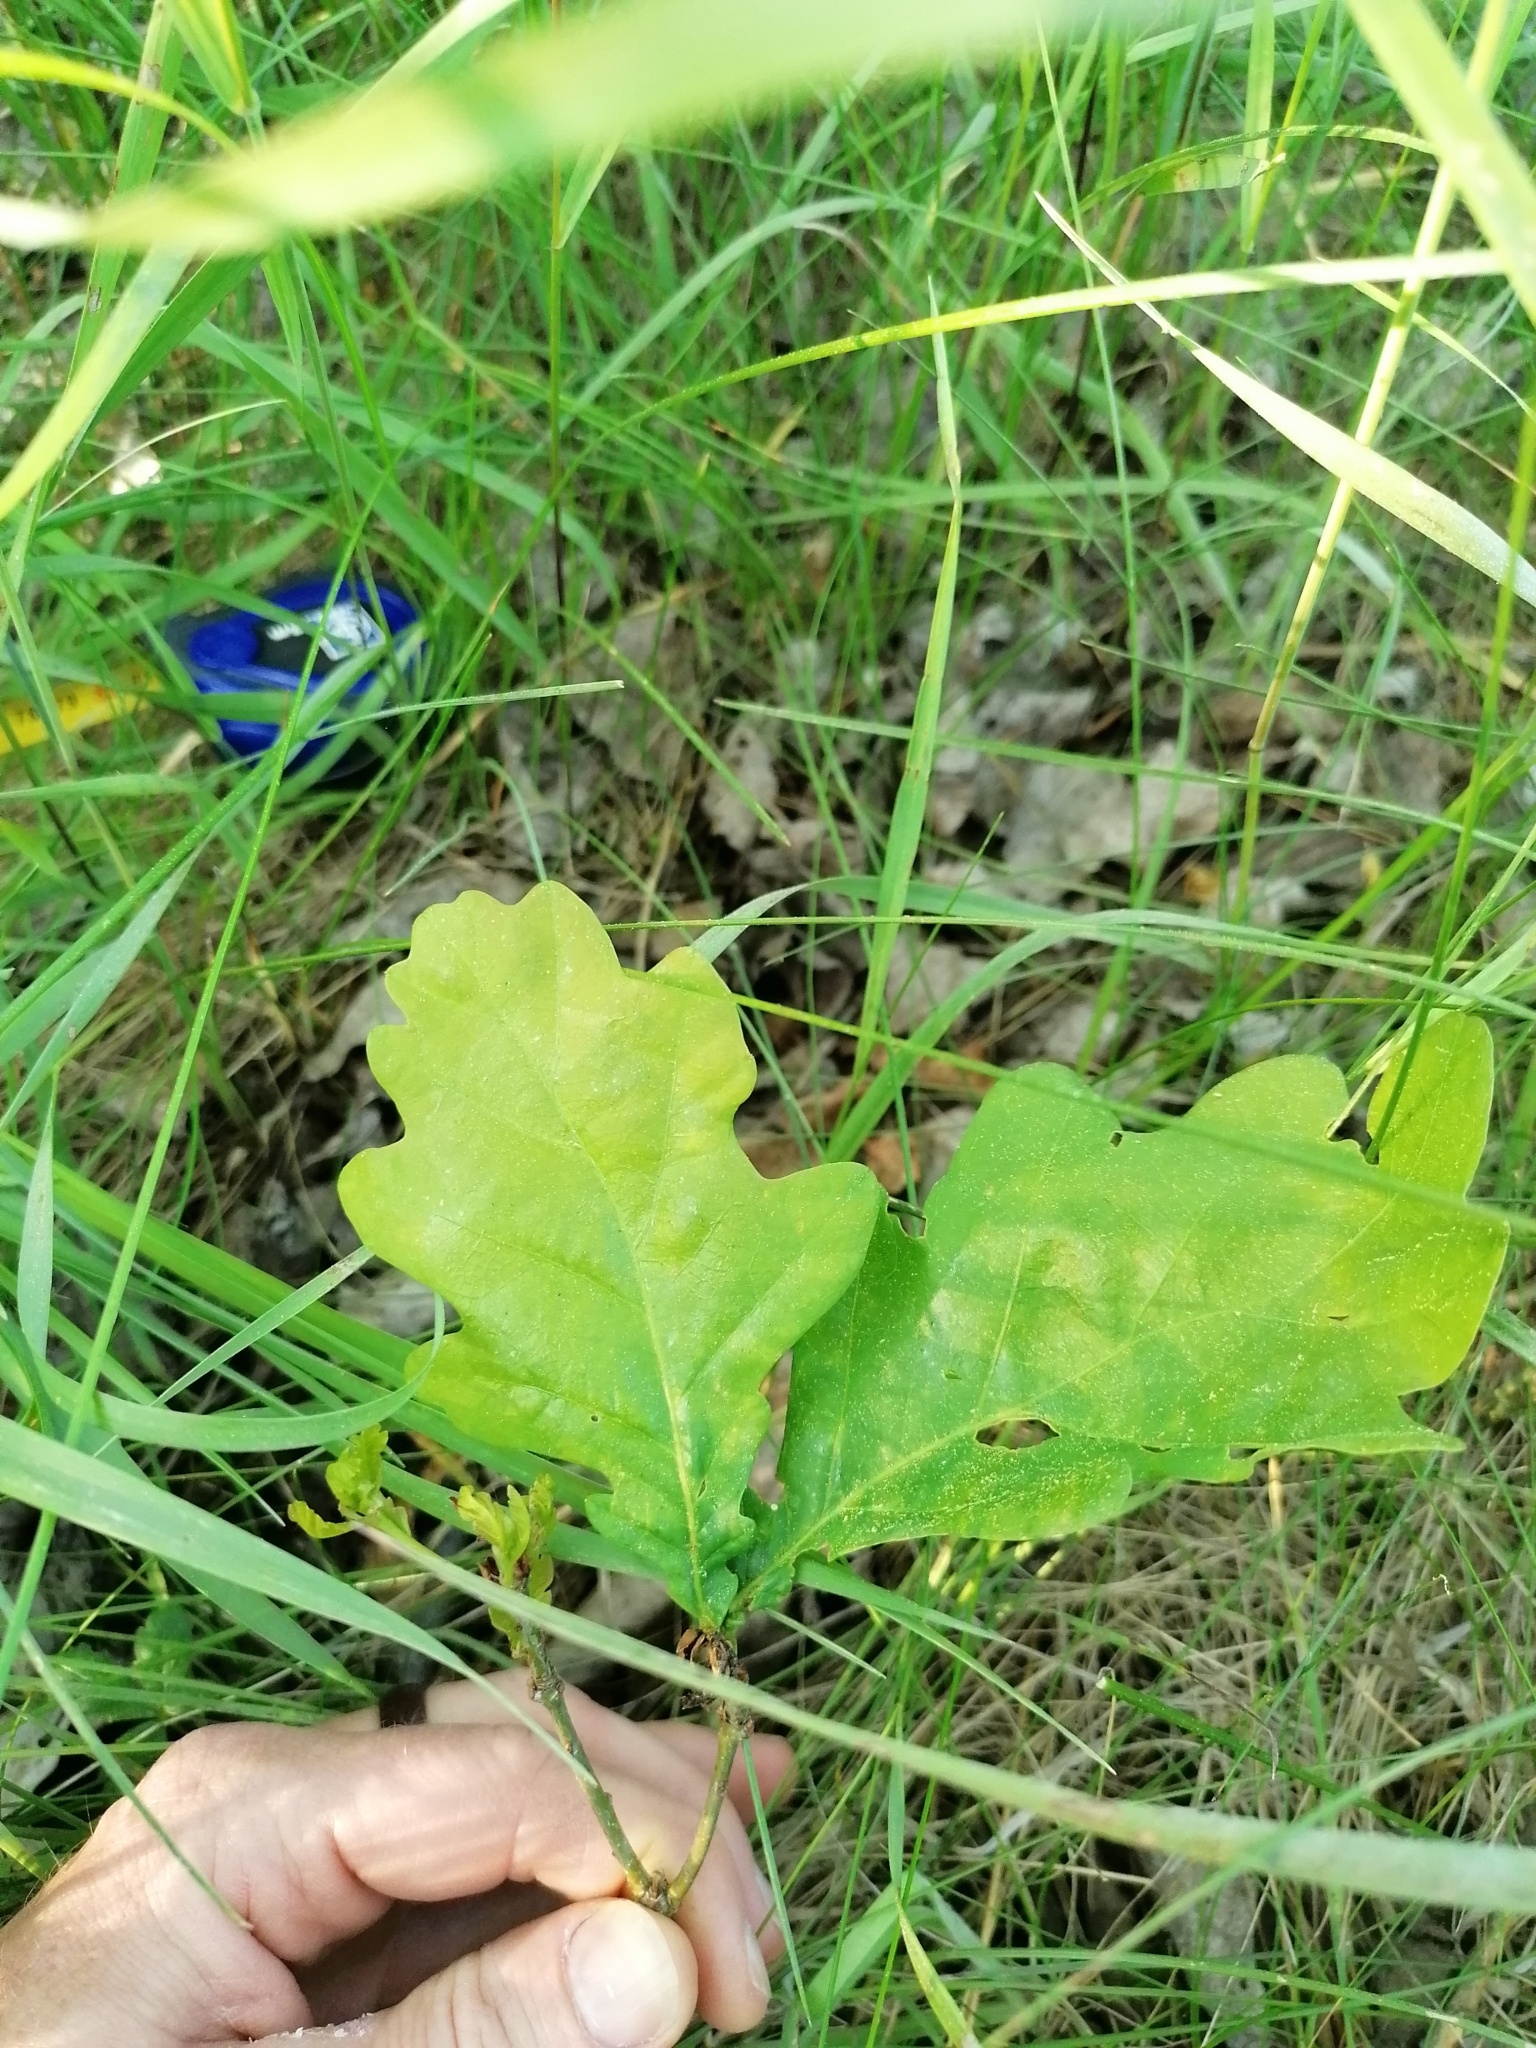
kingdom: Plantae
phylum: Tracheophyta
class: Magnoliopsida
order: Fagales
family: Fagaceae
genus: Quercus
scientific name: Quercus robur
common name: Pedunculate oak
